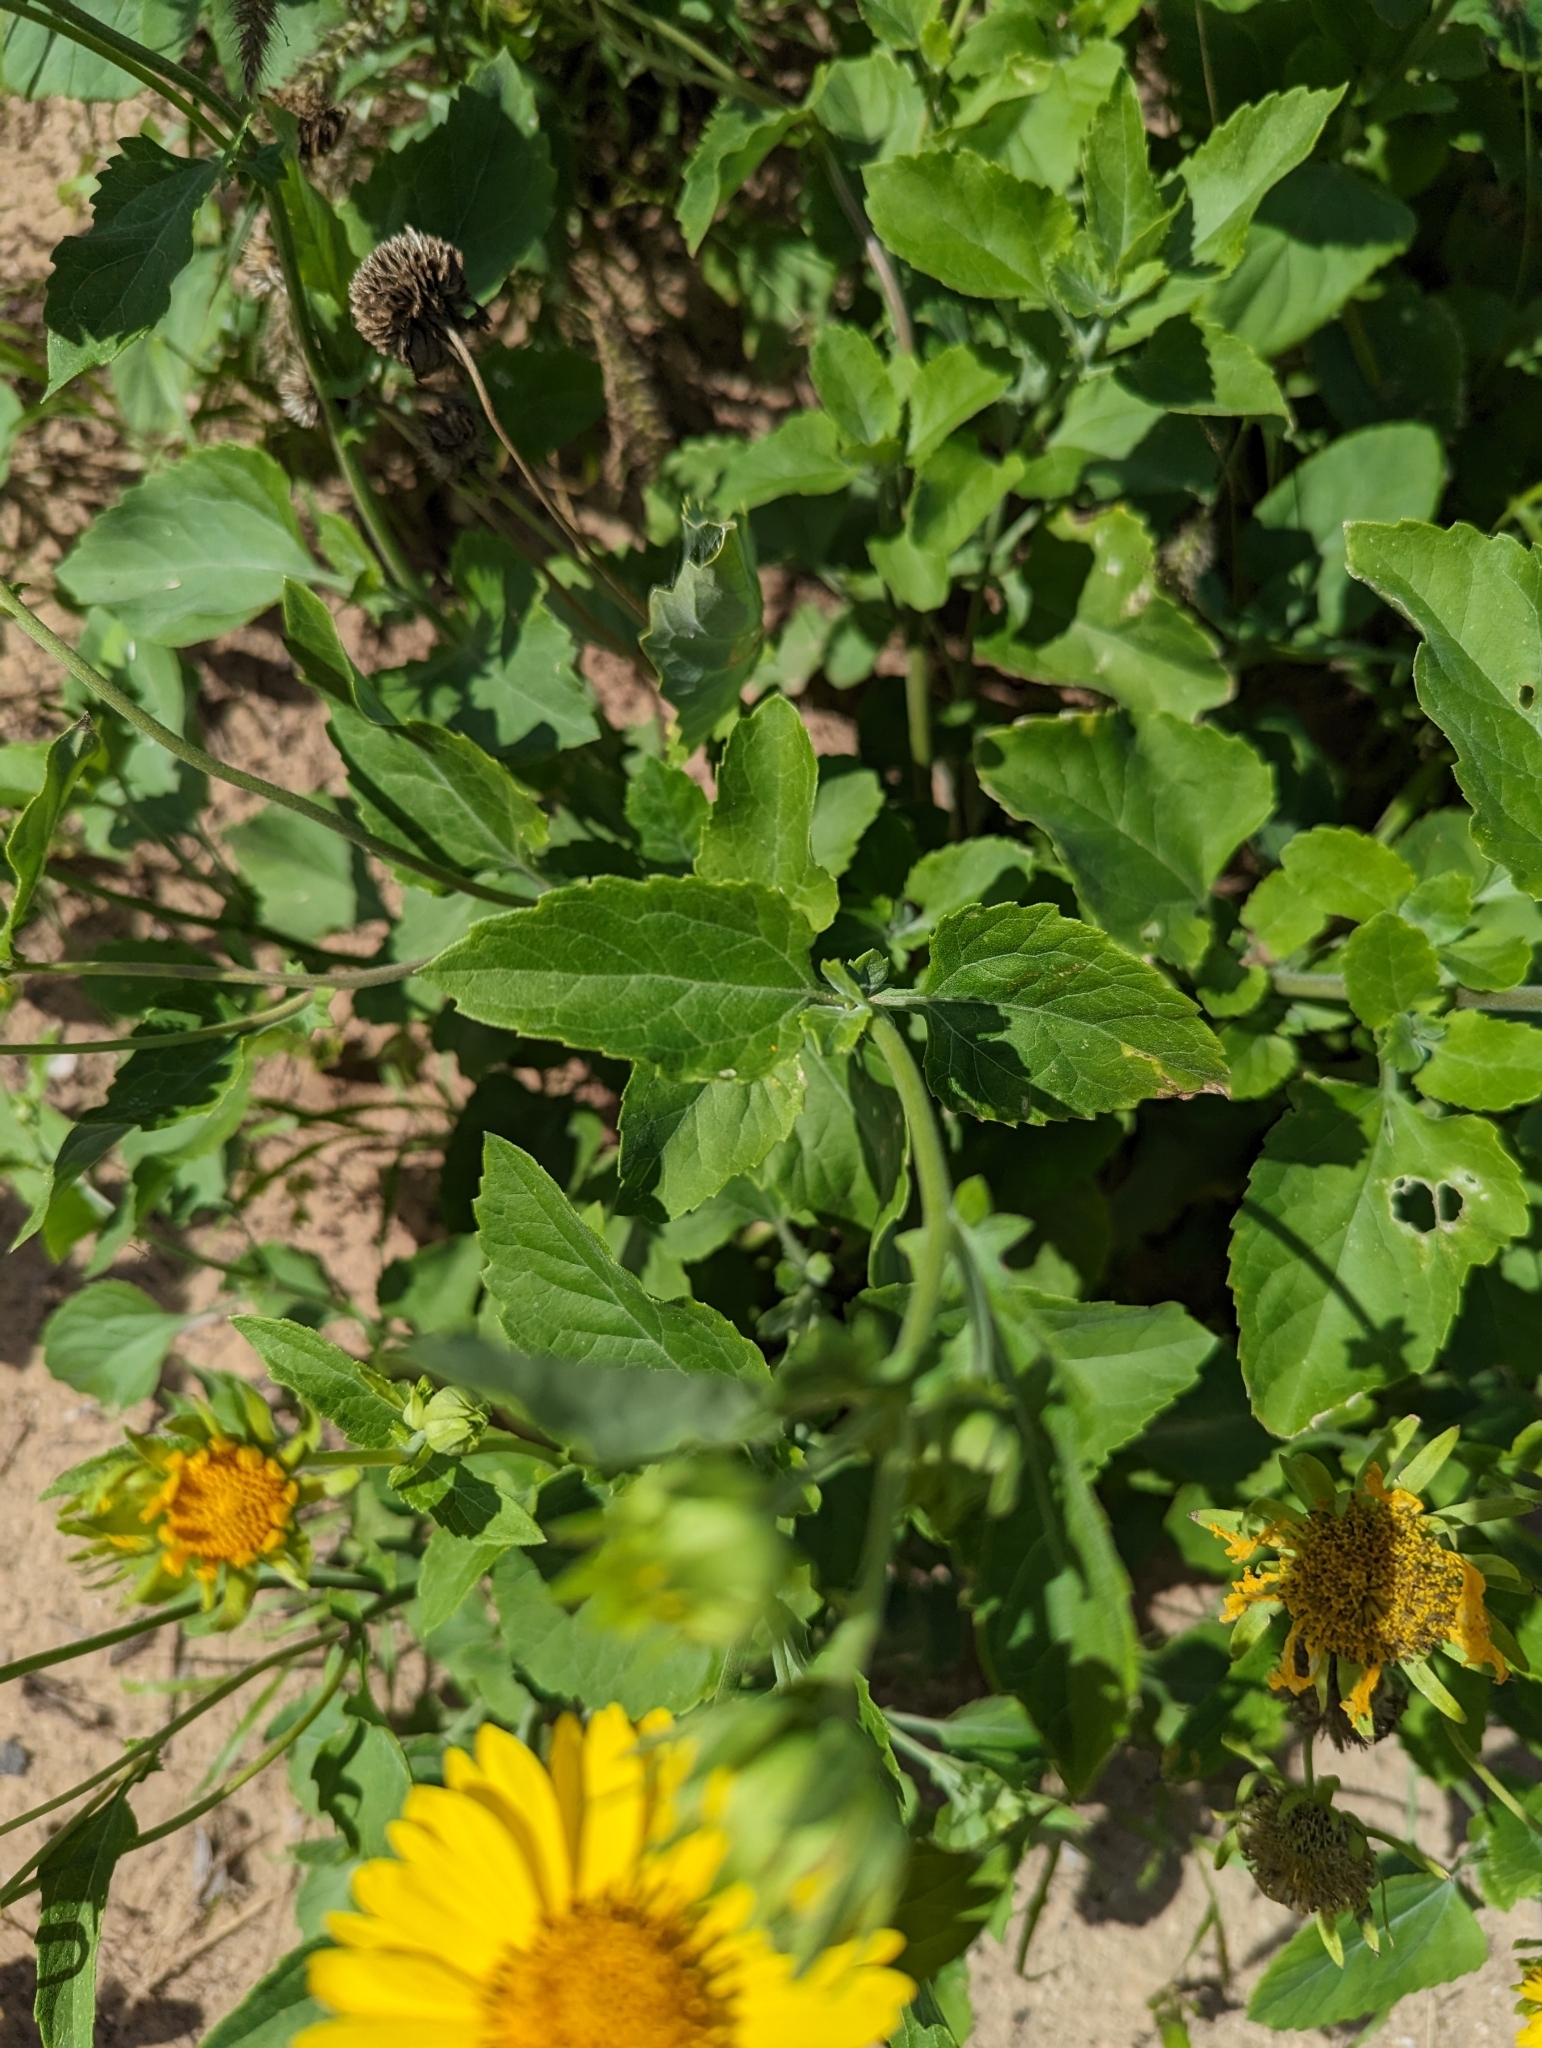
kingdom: Plantae
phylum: Tracheophyta
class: Magnoliopsida
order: Asterales
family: Asteraceae
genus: Verbesina
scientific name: Verbesina encelioides
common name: Golden crownbeard
